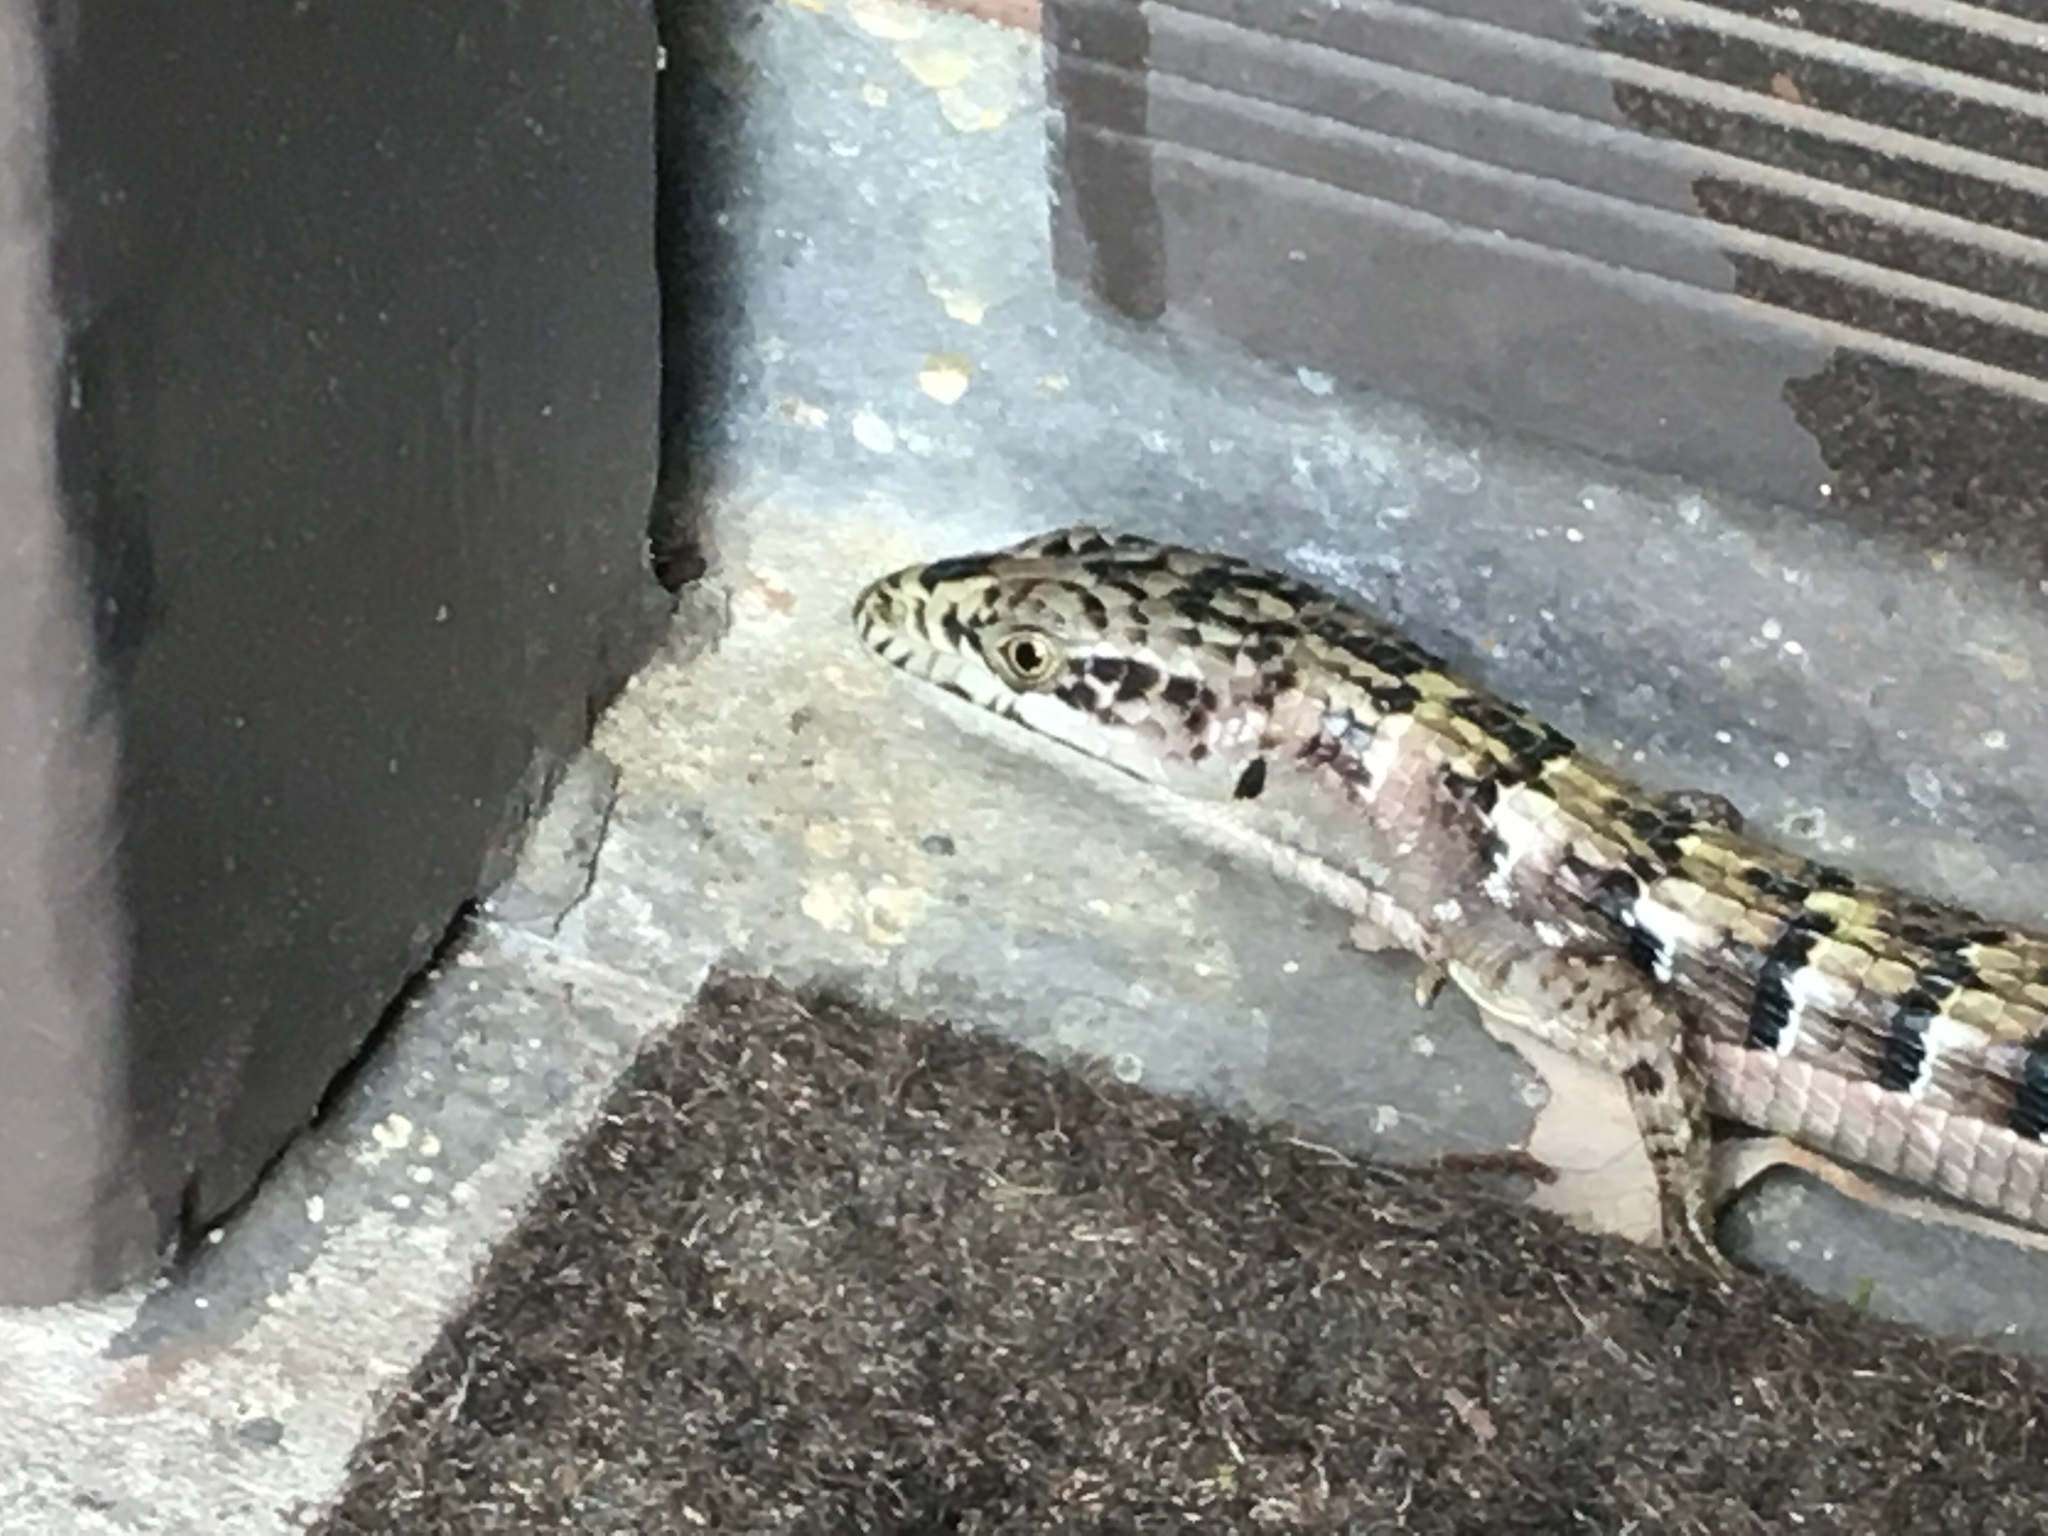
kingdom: Animalia
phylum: Chordata
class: Squamata
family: Anguidae
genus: Elgaria
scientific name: Elgaria multicarinata
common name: Southern alligator lizard
